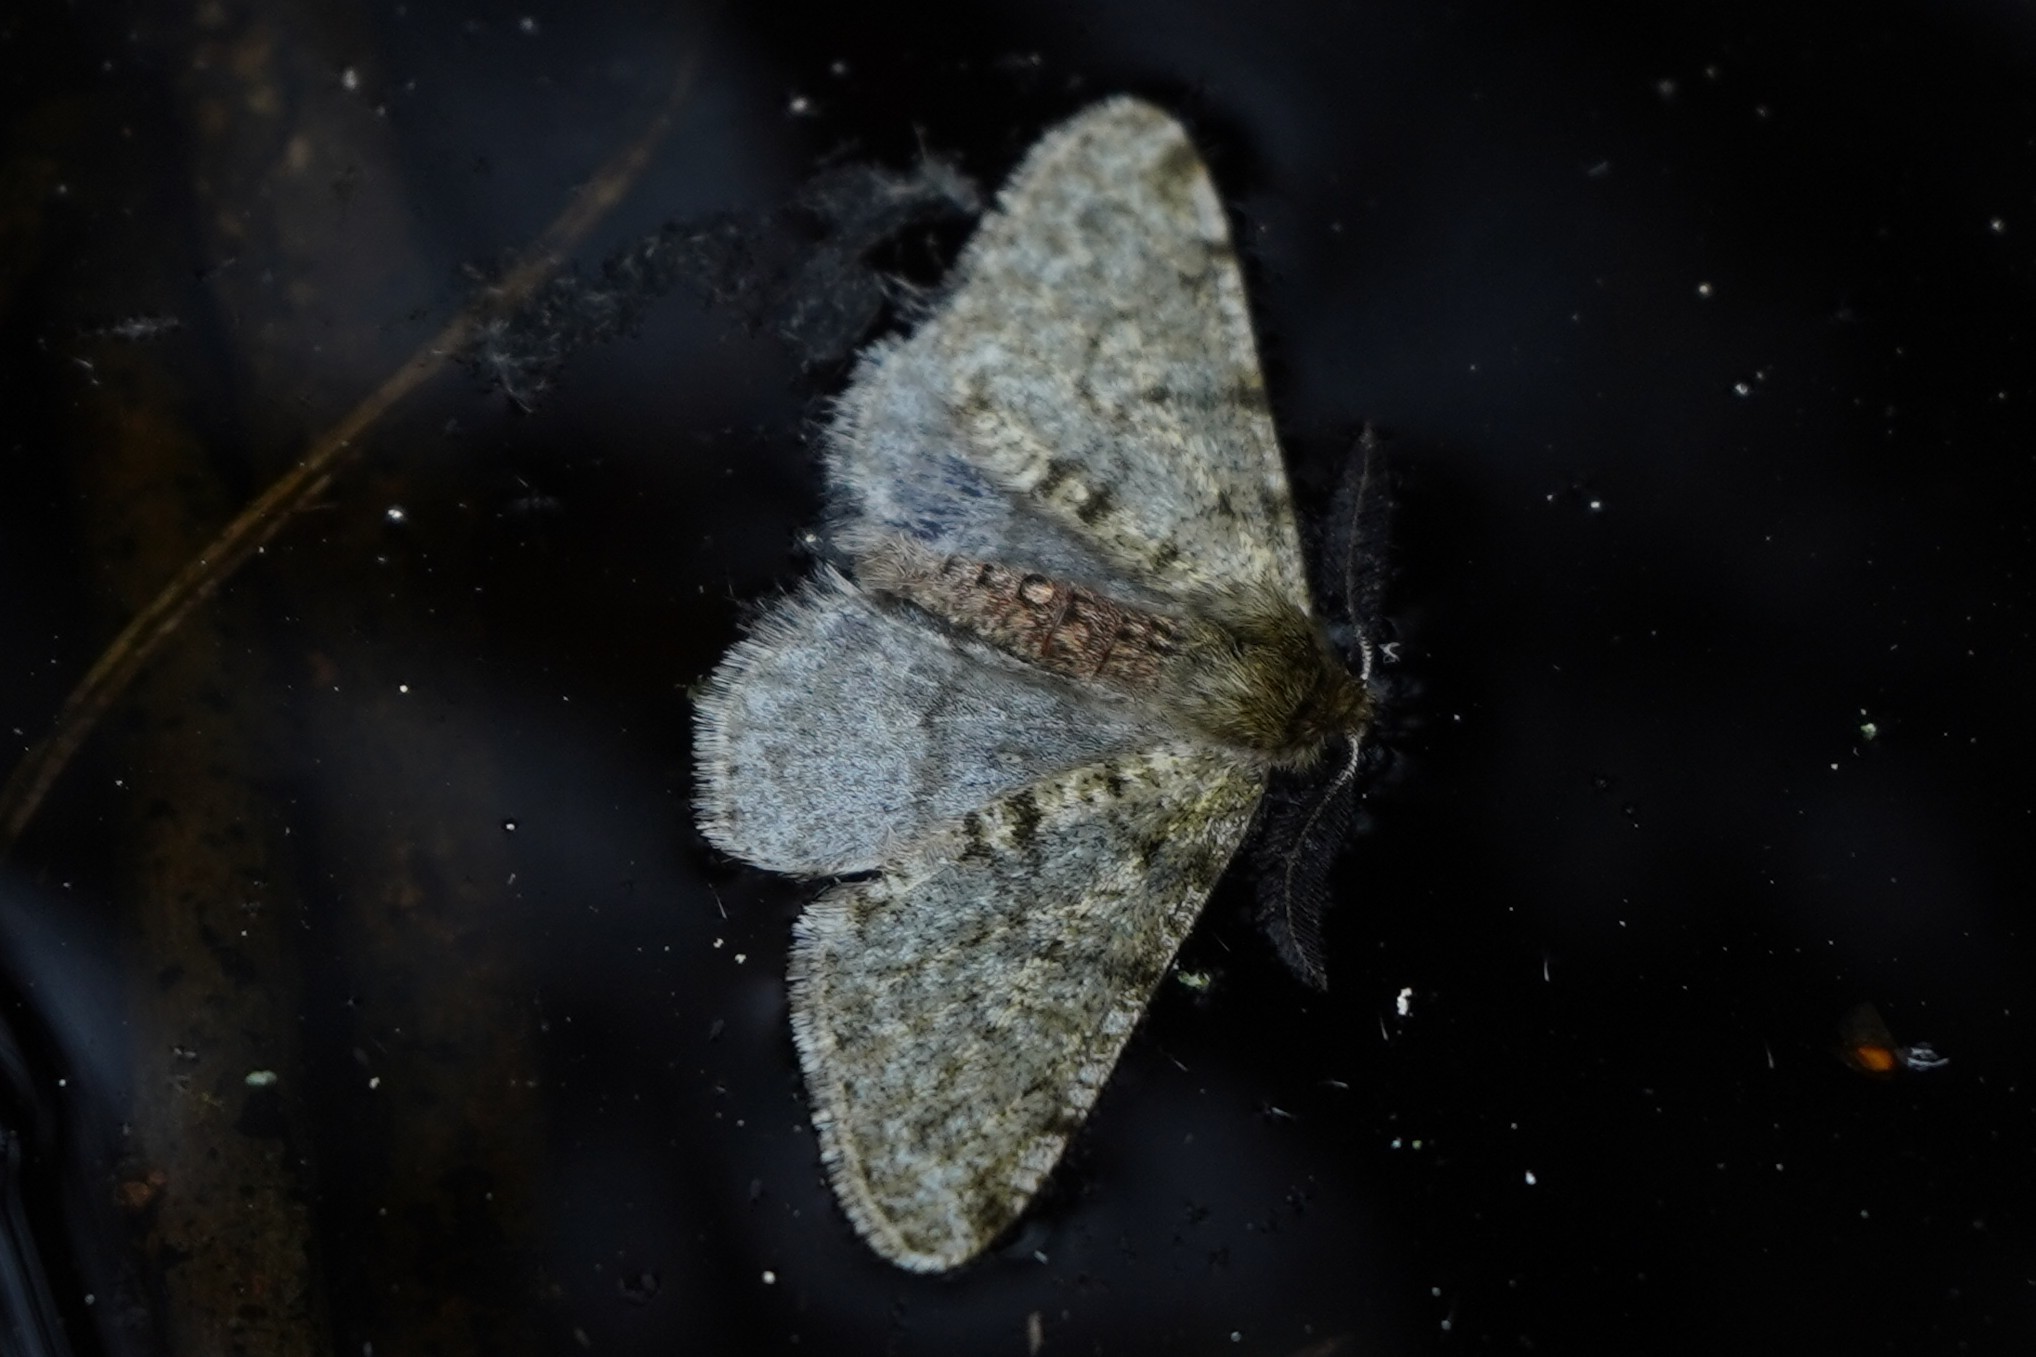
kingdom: Animalia
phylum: Arthropoda
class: Insecta
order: Lepidoptera
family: Geometridae
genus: Phigalia
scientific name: Phigalia pilosaria
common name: Pale brindled beauty
